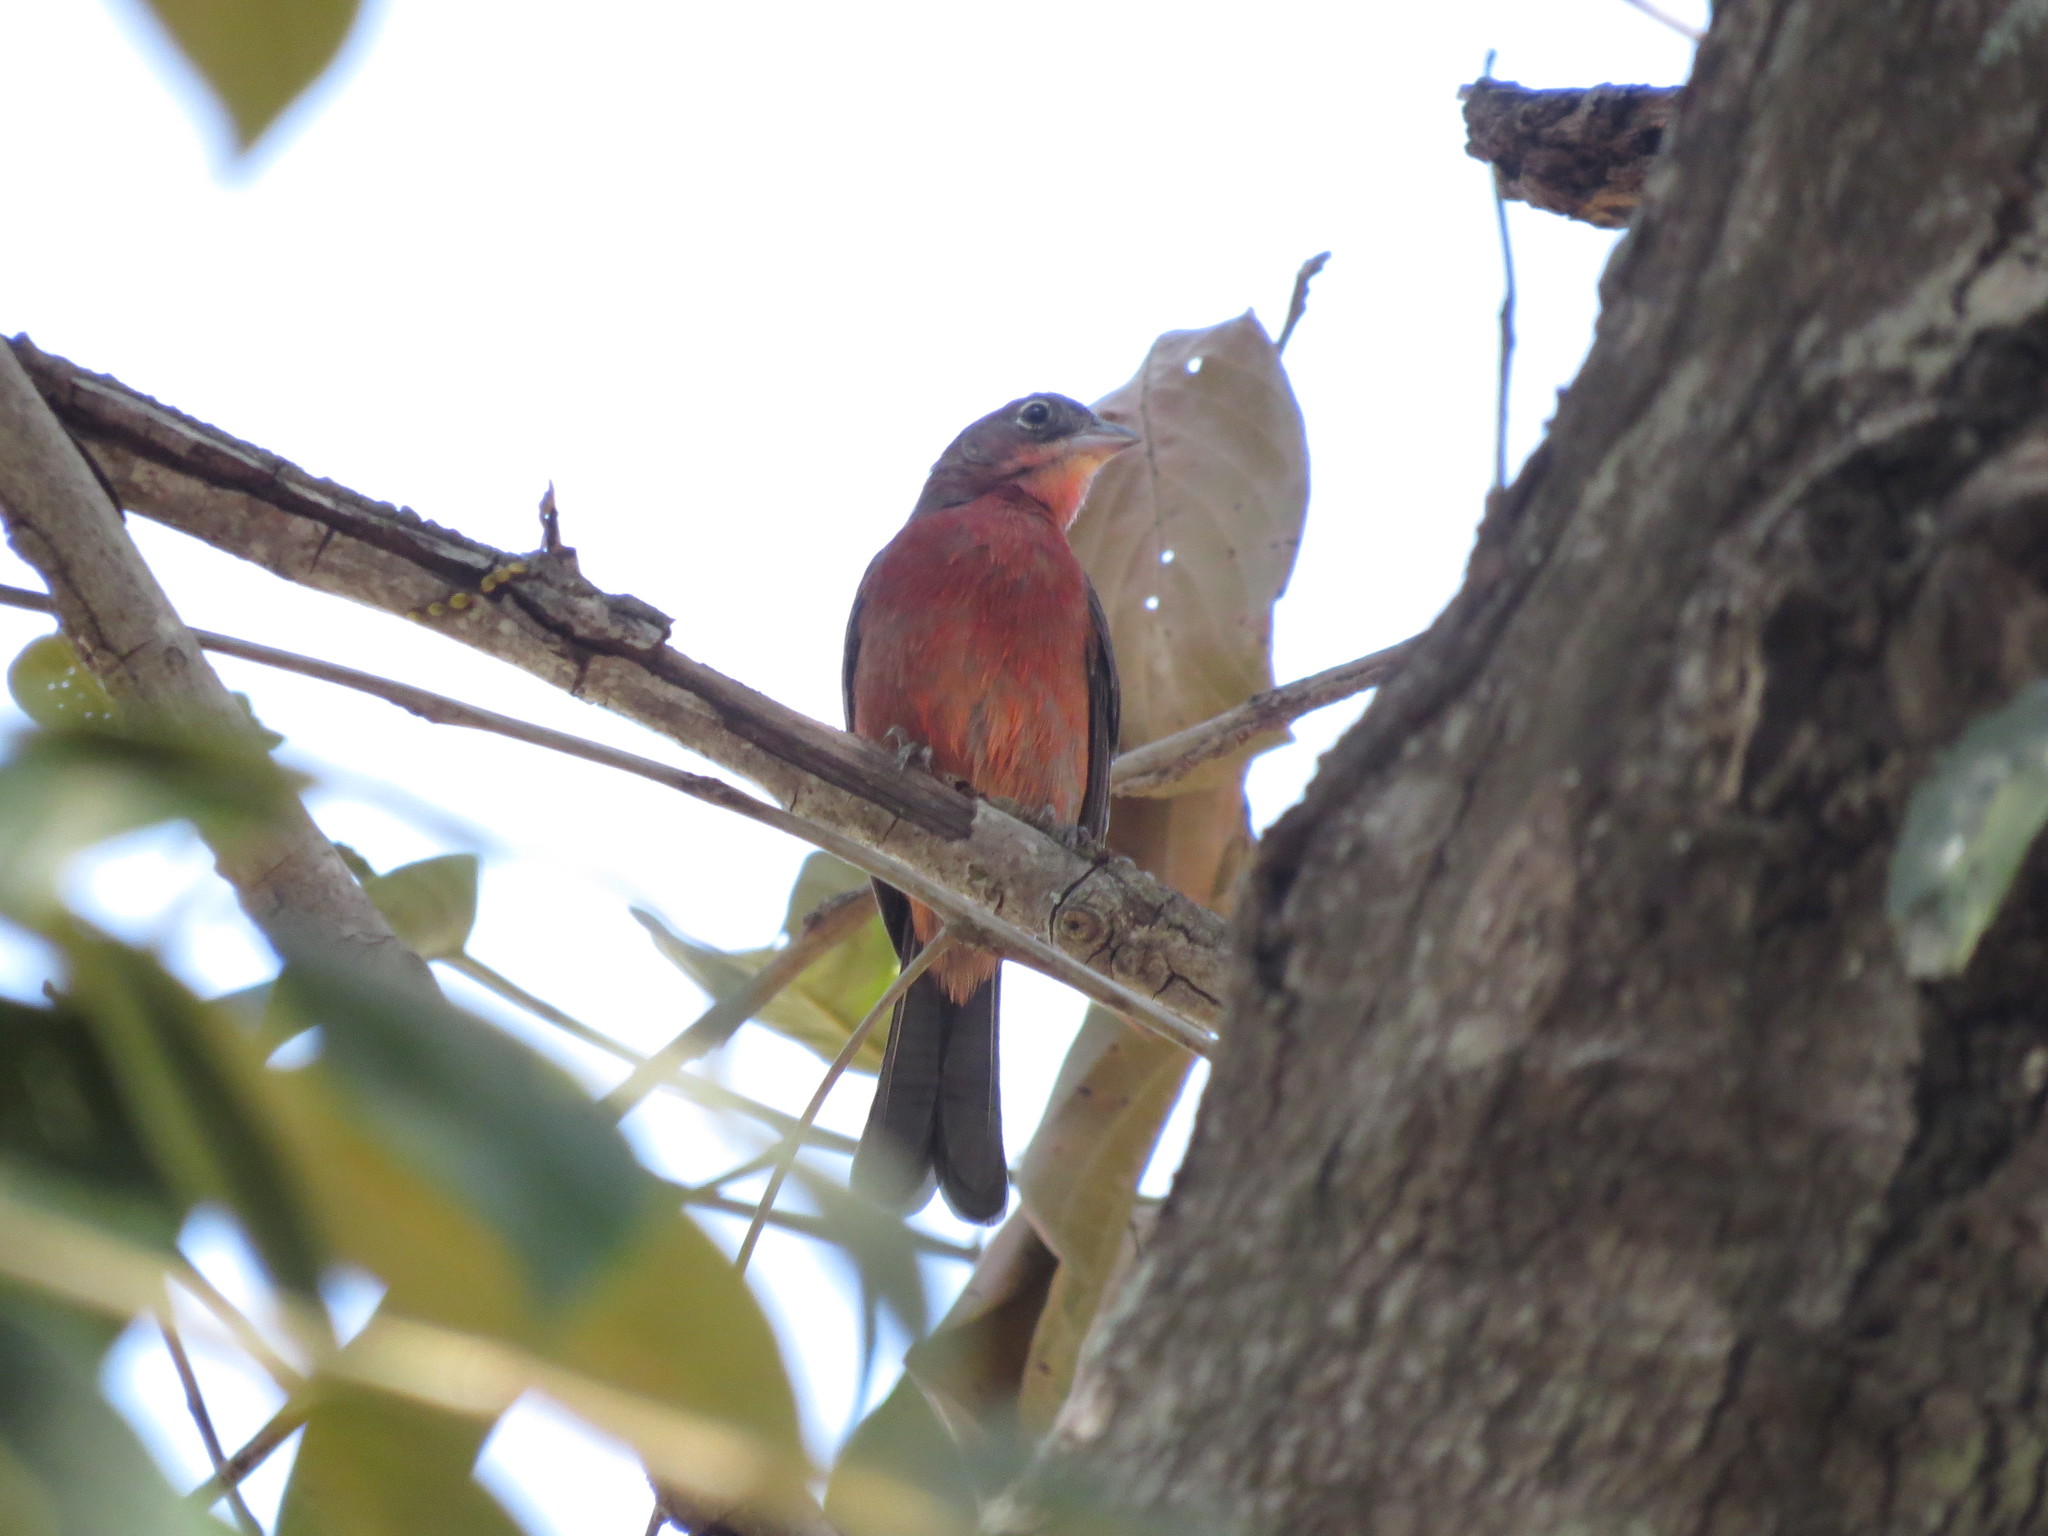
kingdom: Animalia
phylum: Chordata
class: Aves
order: Passeriformes
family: Thraupidae
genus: Coryphospingus
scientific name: Coryphospingus cucullatus
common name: Red pileated finch
